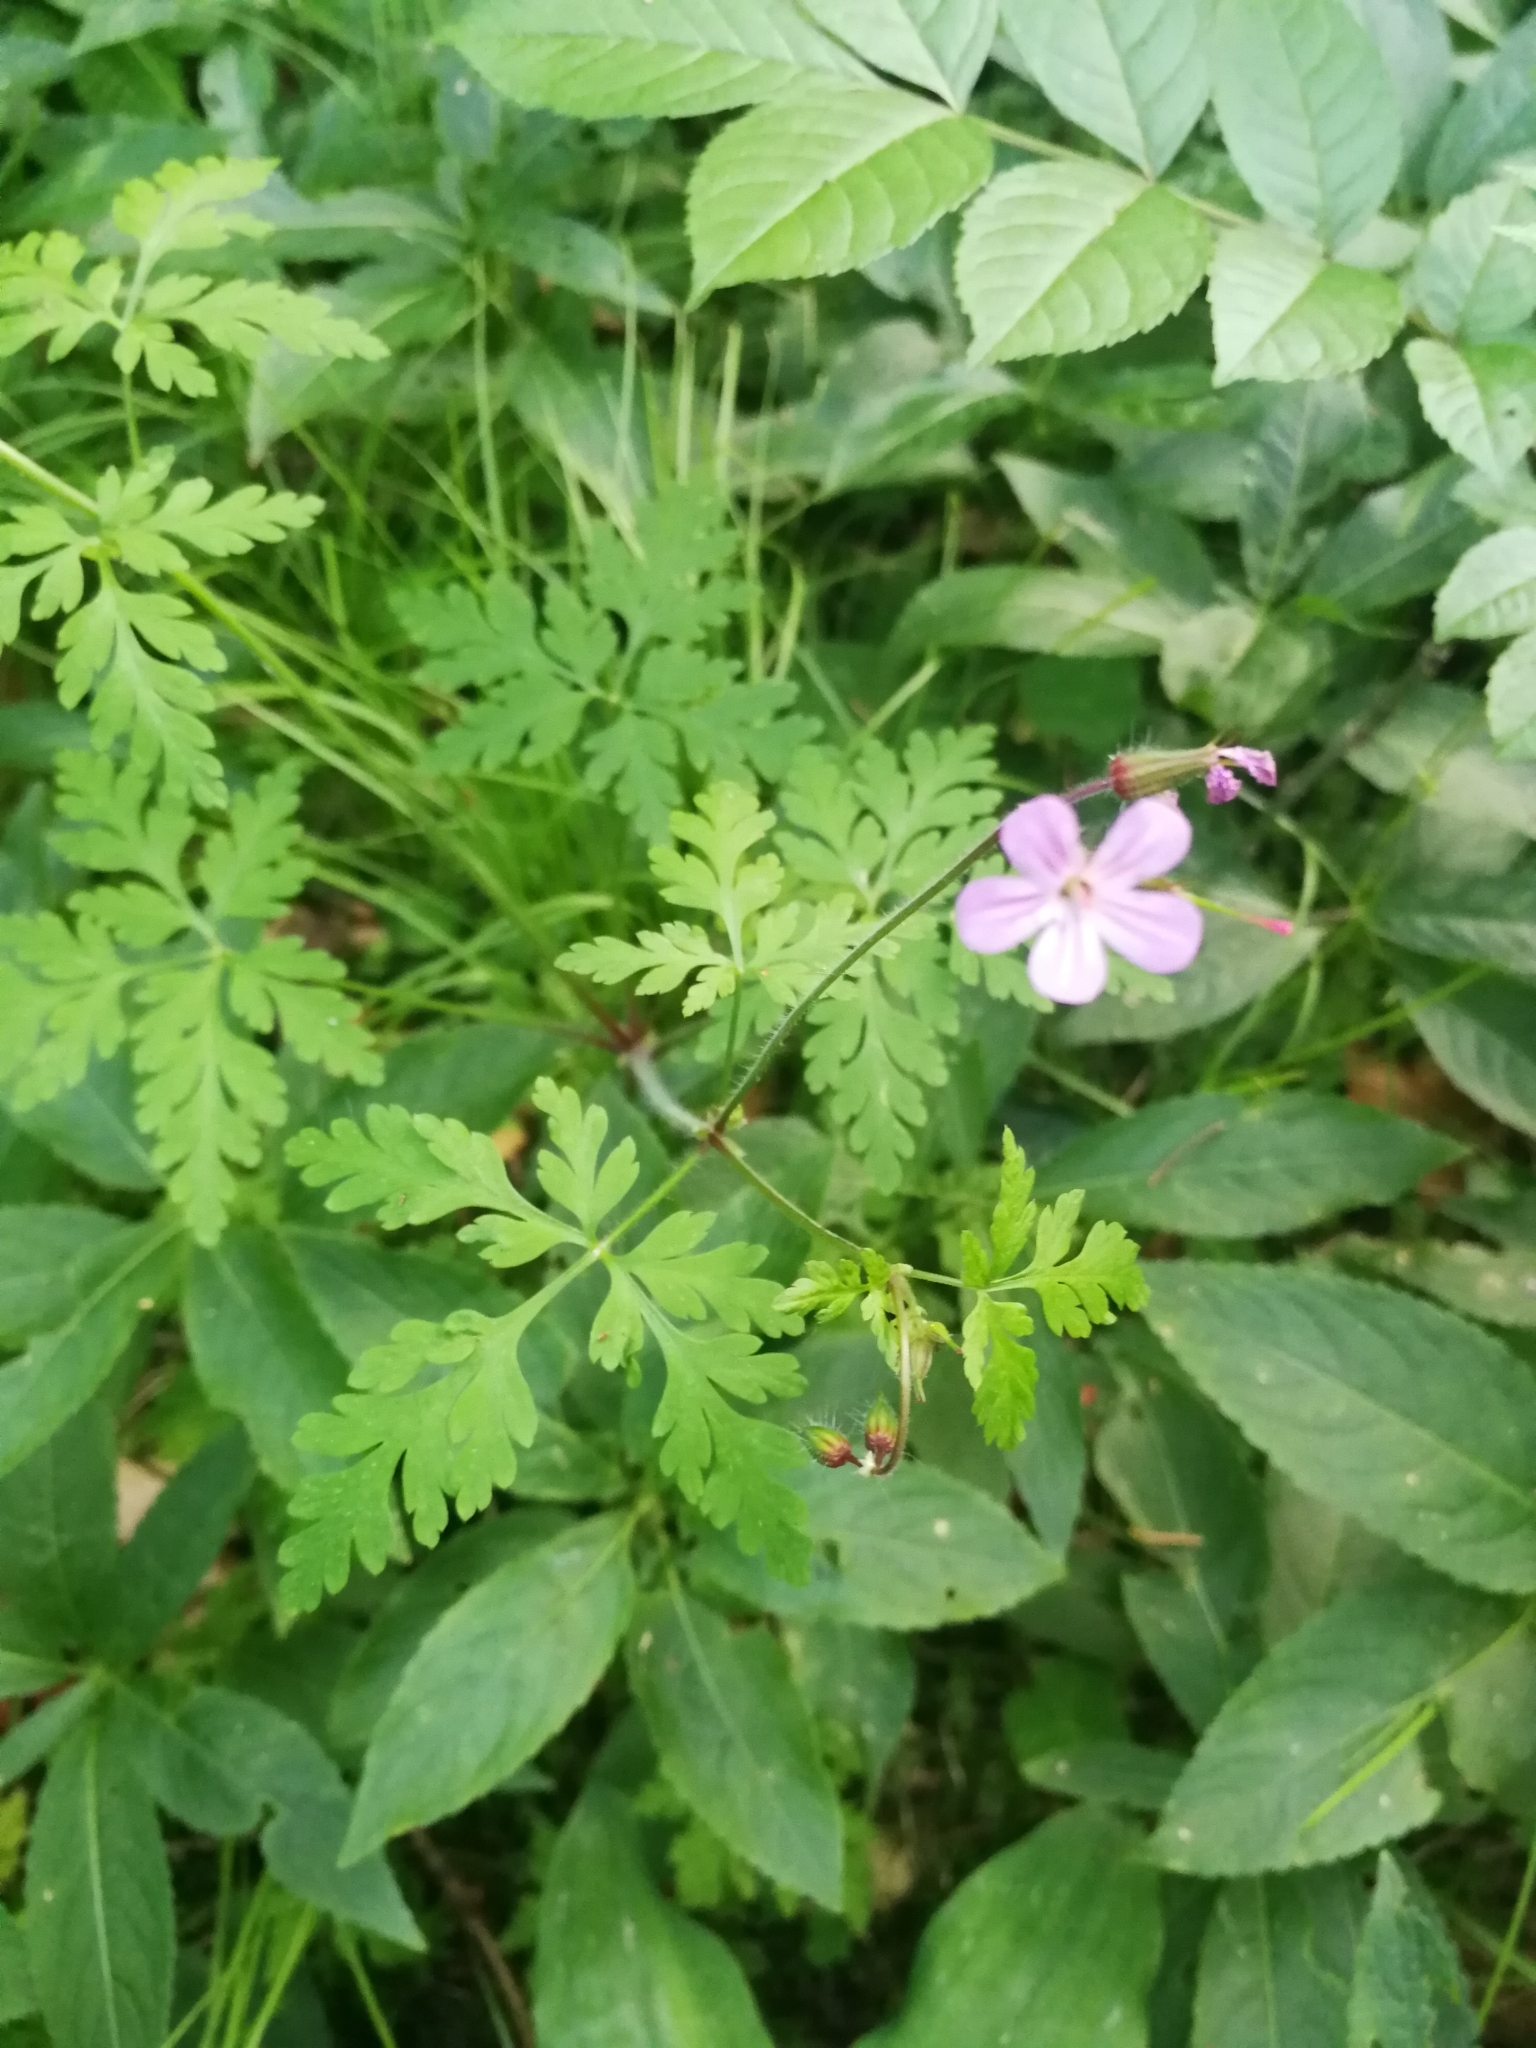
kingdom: Plantae
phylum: Tracheophyta
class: Magnoliopsida
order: Geraniales
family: Geraniaceae
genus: Geranium
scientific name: Geranium robertianum
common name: Herb-robert
